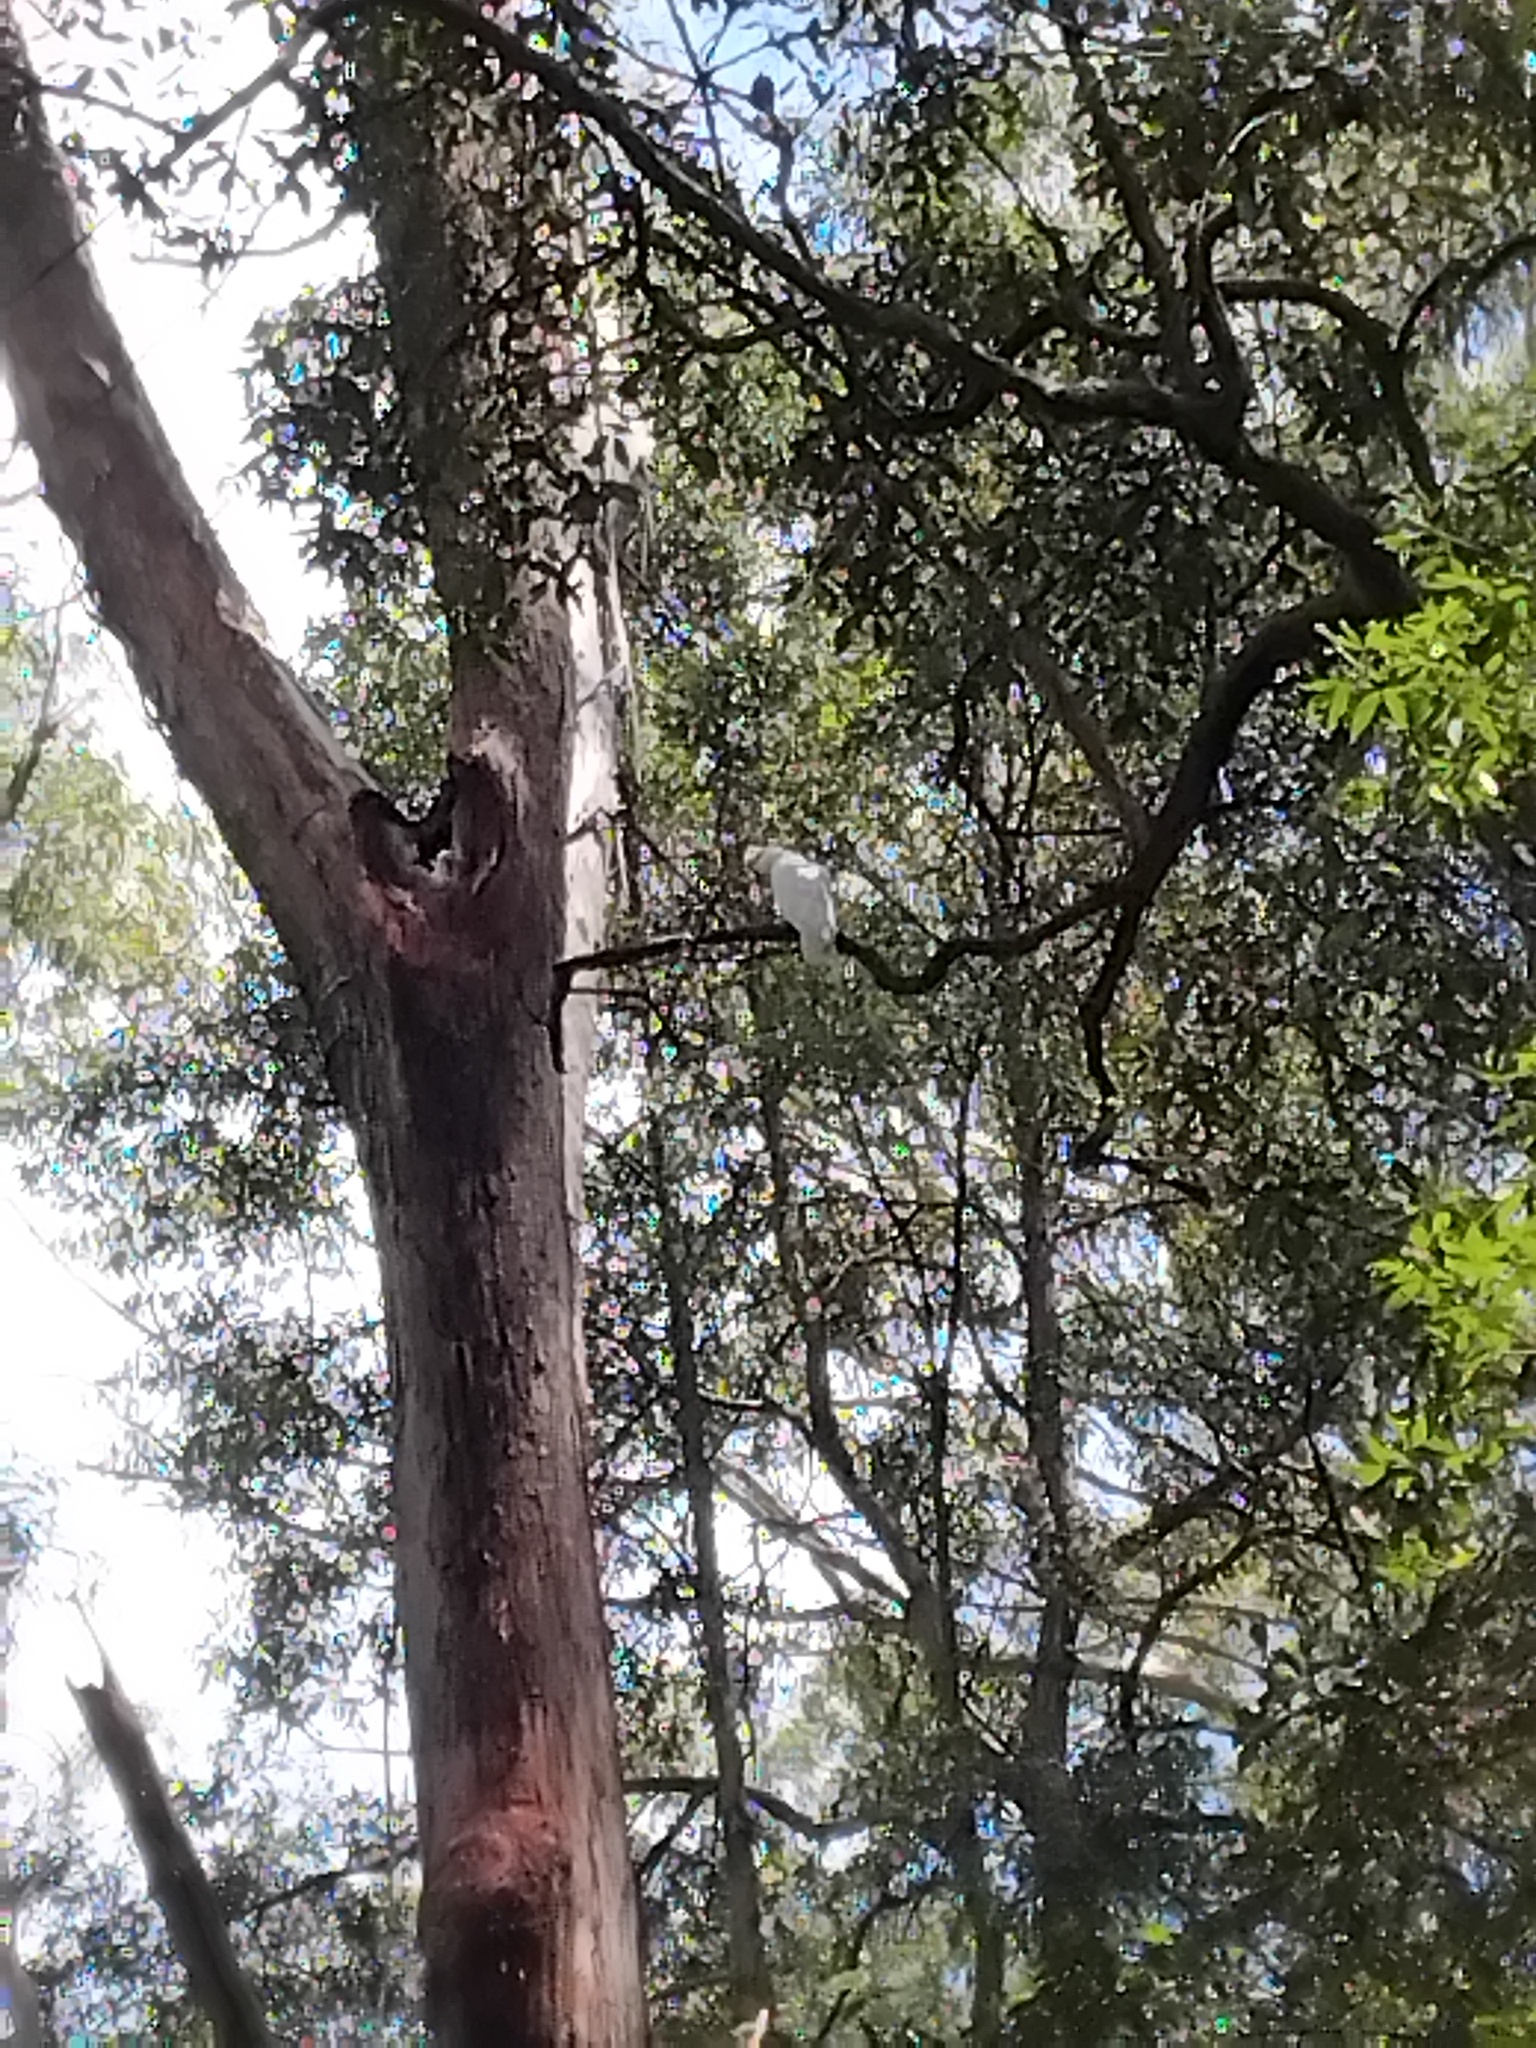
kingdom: Animalia
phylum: Chordata
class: Aves
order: Psittaciformes
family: Psittacidae
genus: Cacatua
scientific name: Cacatua galerita
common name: Sulphur-crested cockatoo
